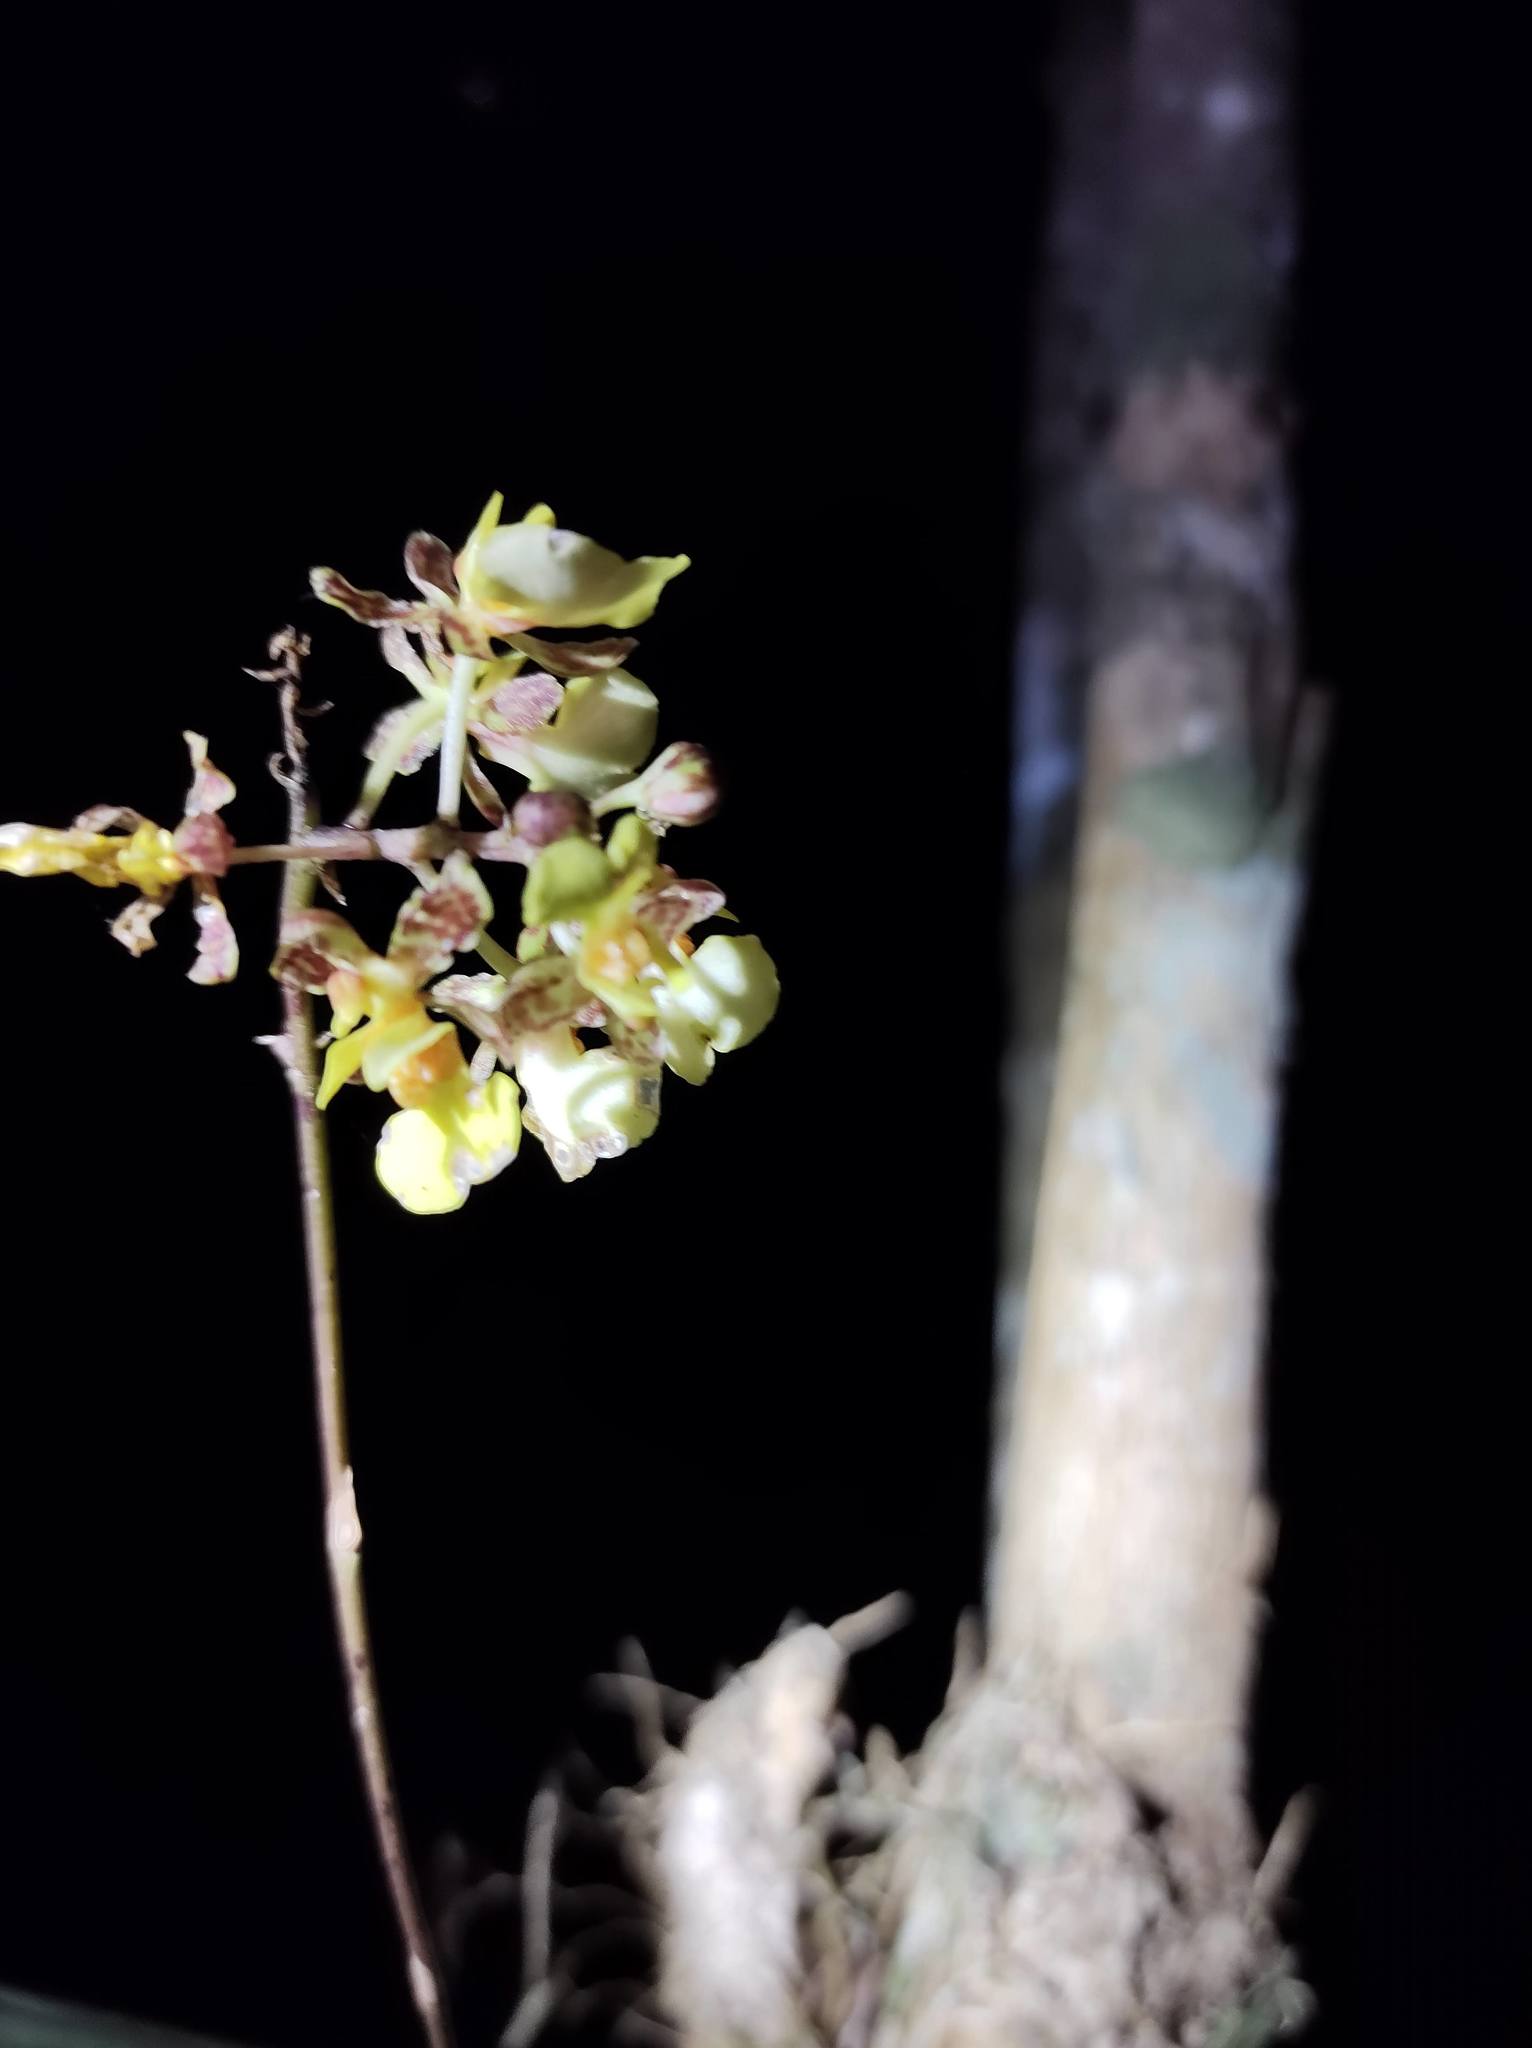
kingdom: Plantae
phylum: Tracheophyta
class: Liliopsida
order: Asparagales
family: Orchidaceae
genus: Trichocentrum
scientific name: Trichocentrum ascendens
